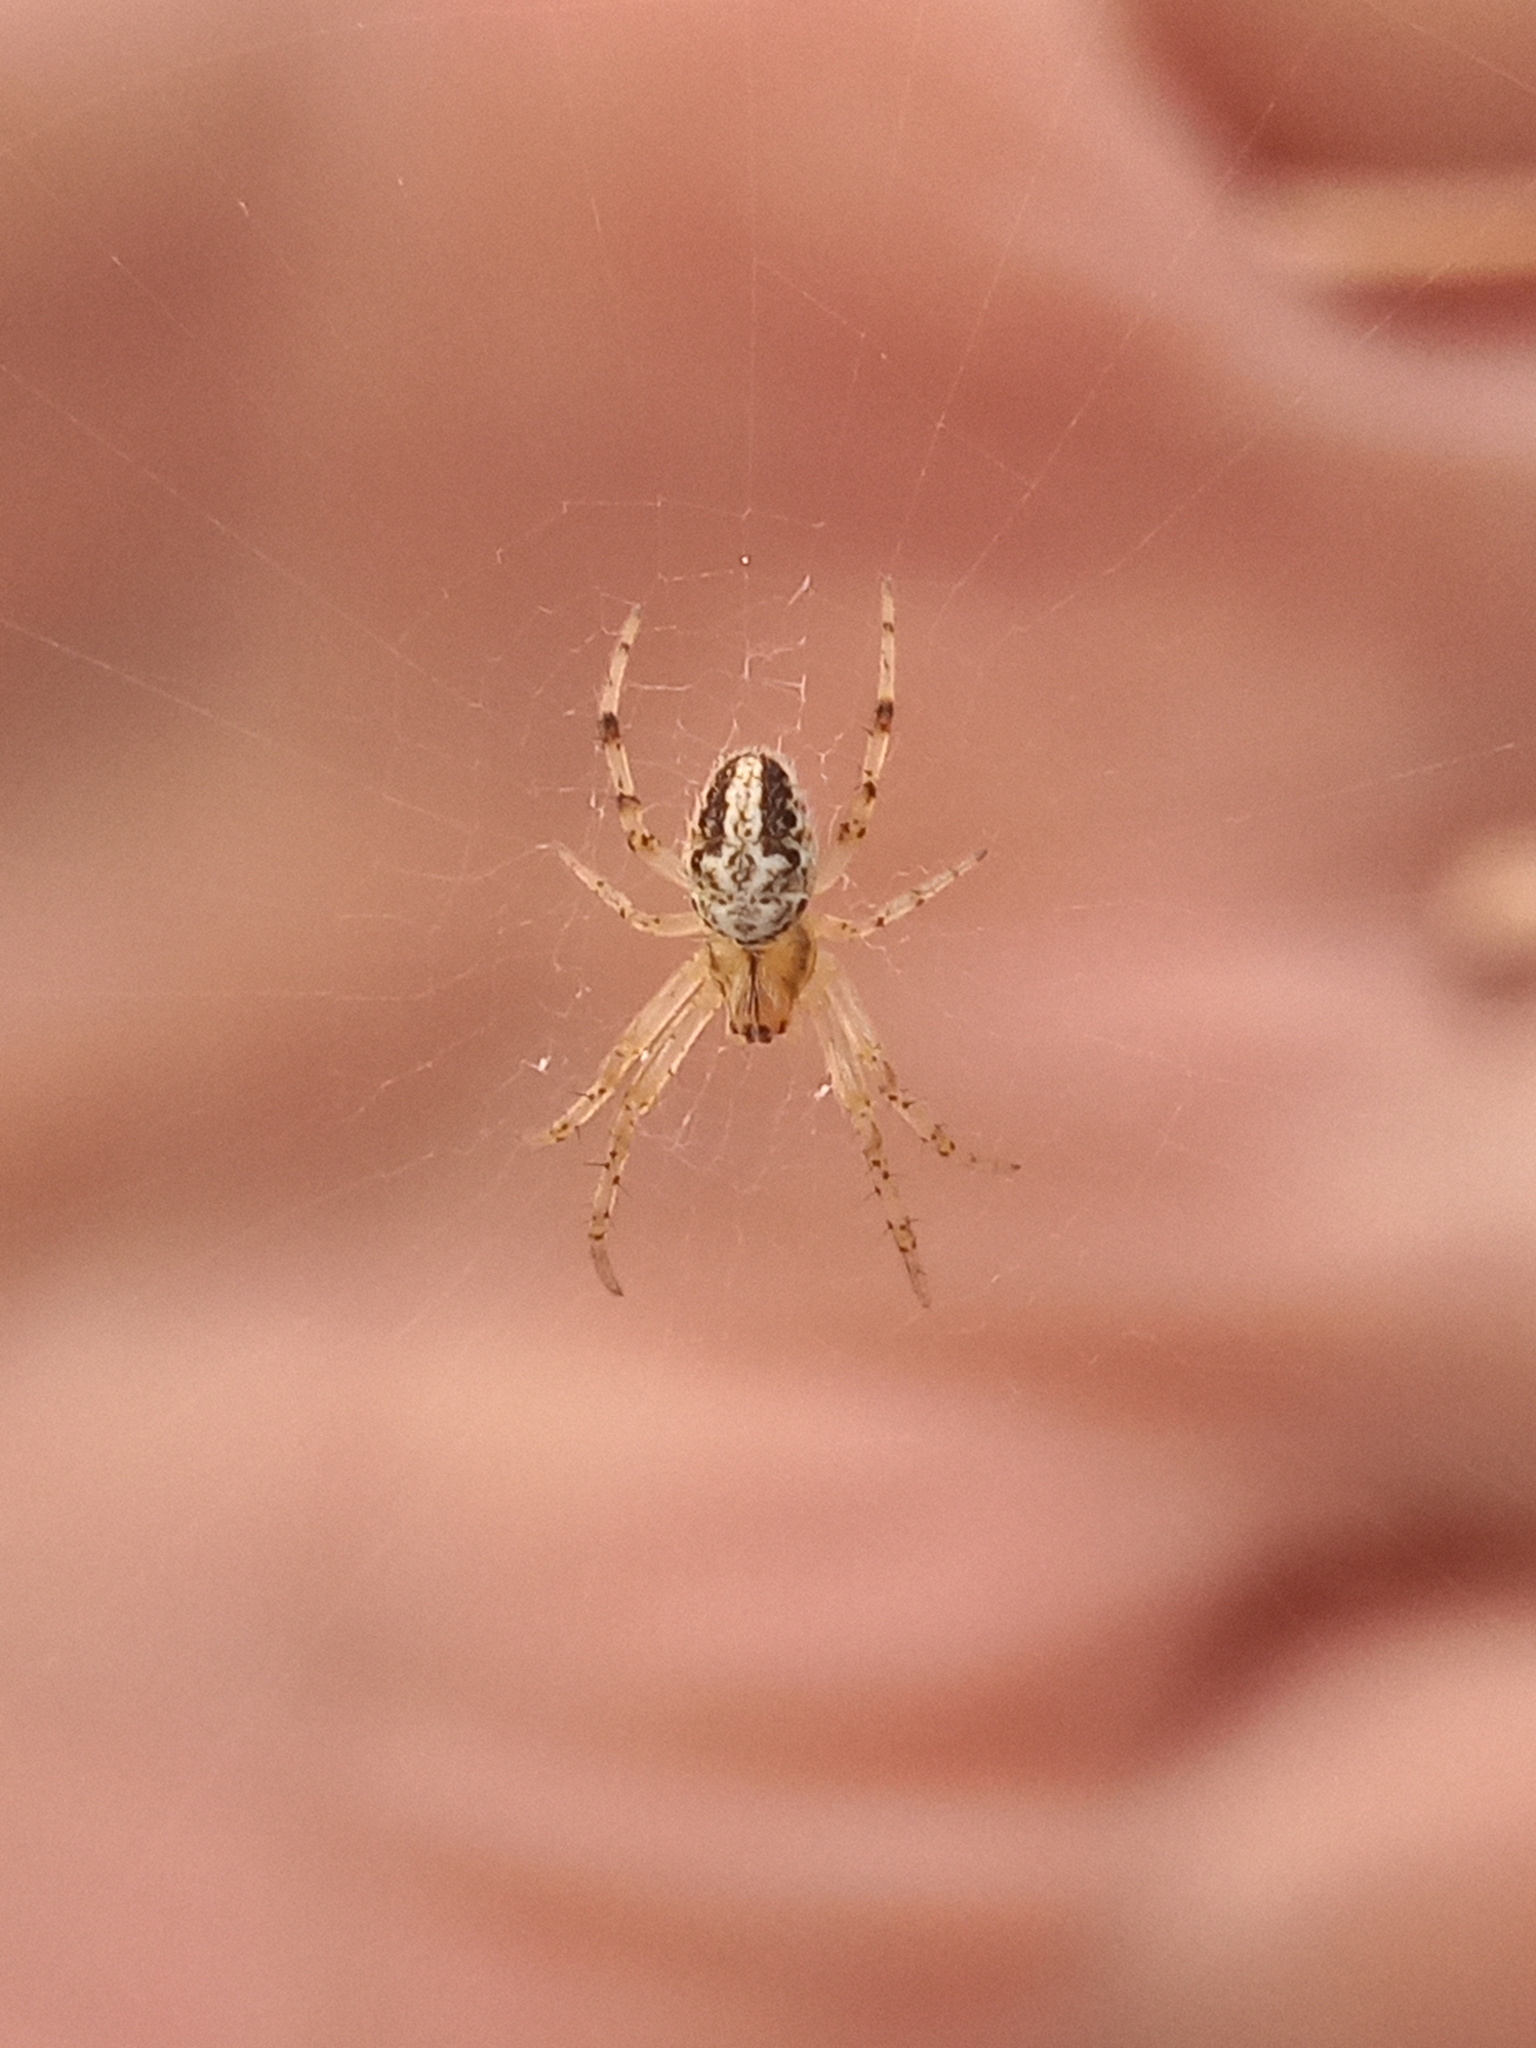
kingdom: Animalia
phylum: Arthropoda
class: Arachnida
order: Araneae
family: Araneidae
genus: Neoscona
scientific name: Neoscona arabesca
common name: Orb weavers
